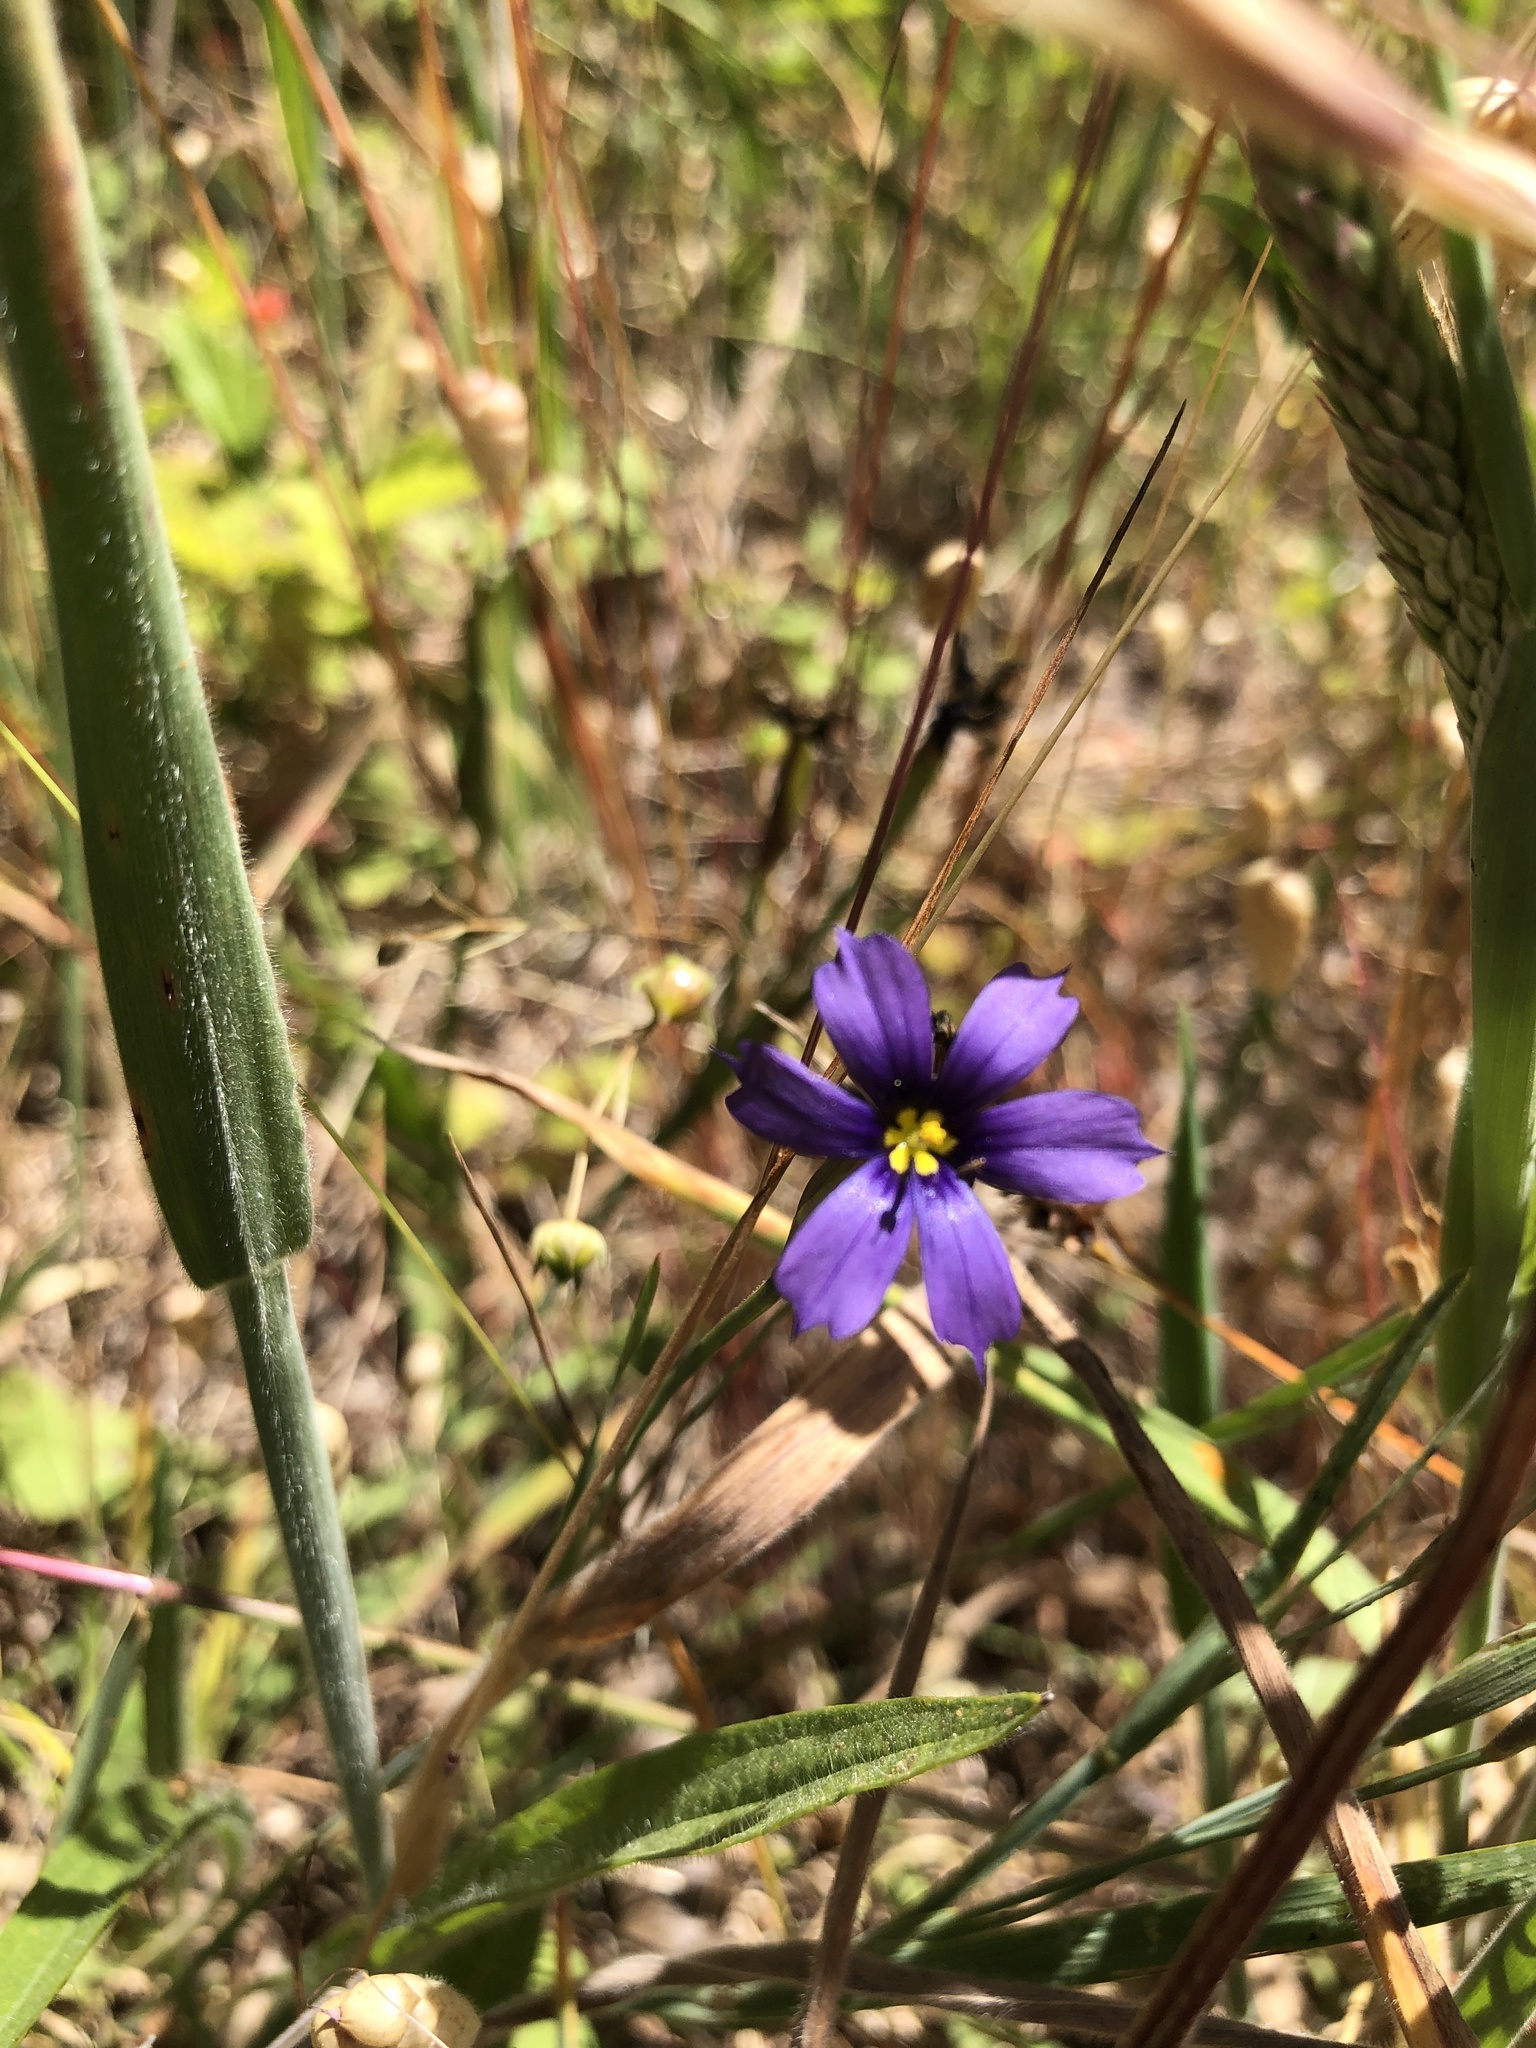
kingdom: Plantae
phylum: Tracheophyta
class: Liliopsida
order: Asparagales
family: Iridaceae
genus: Sisyrinchium
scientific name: Sisyrinchium bellum
